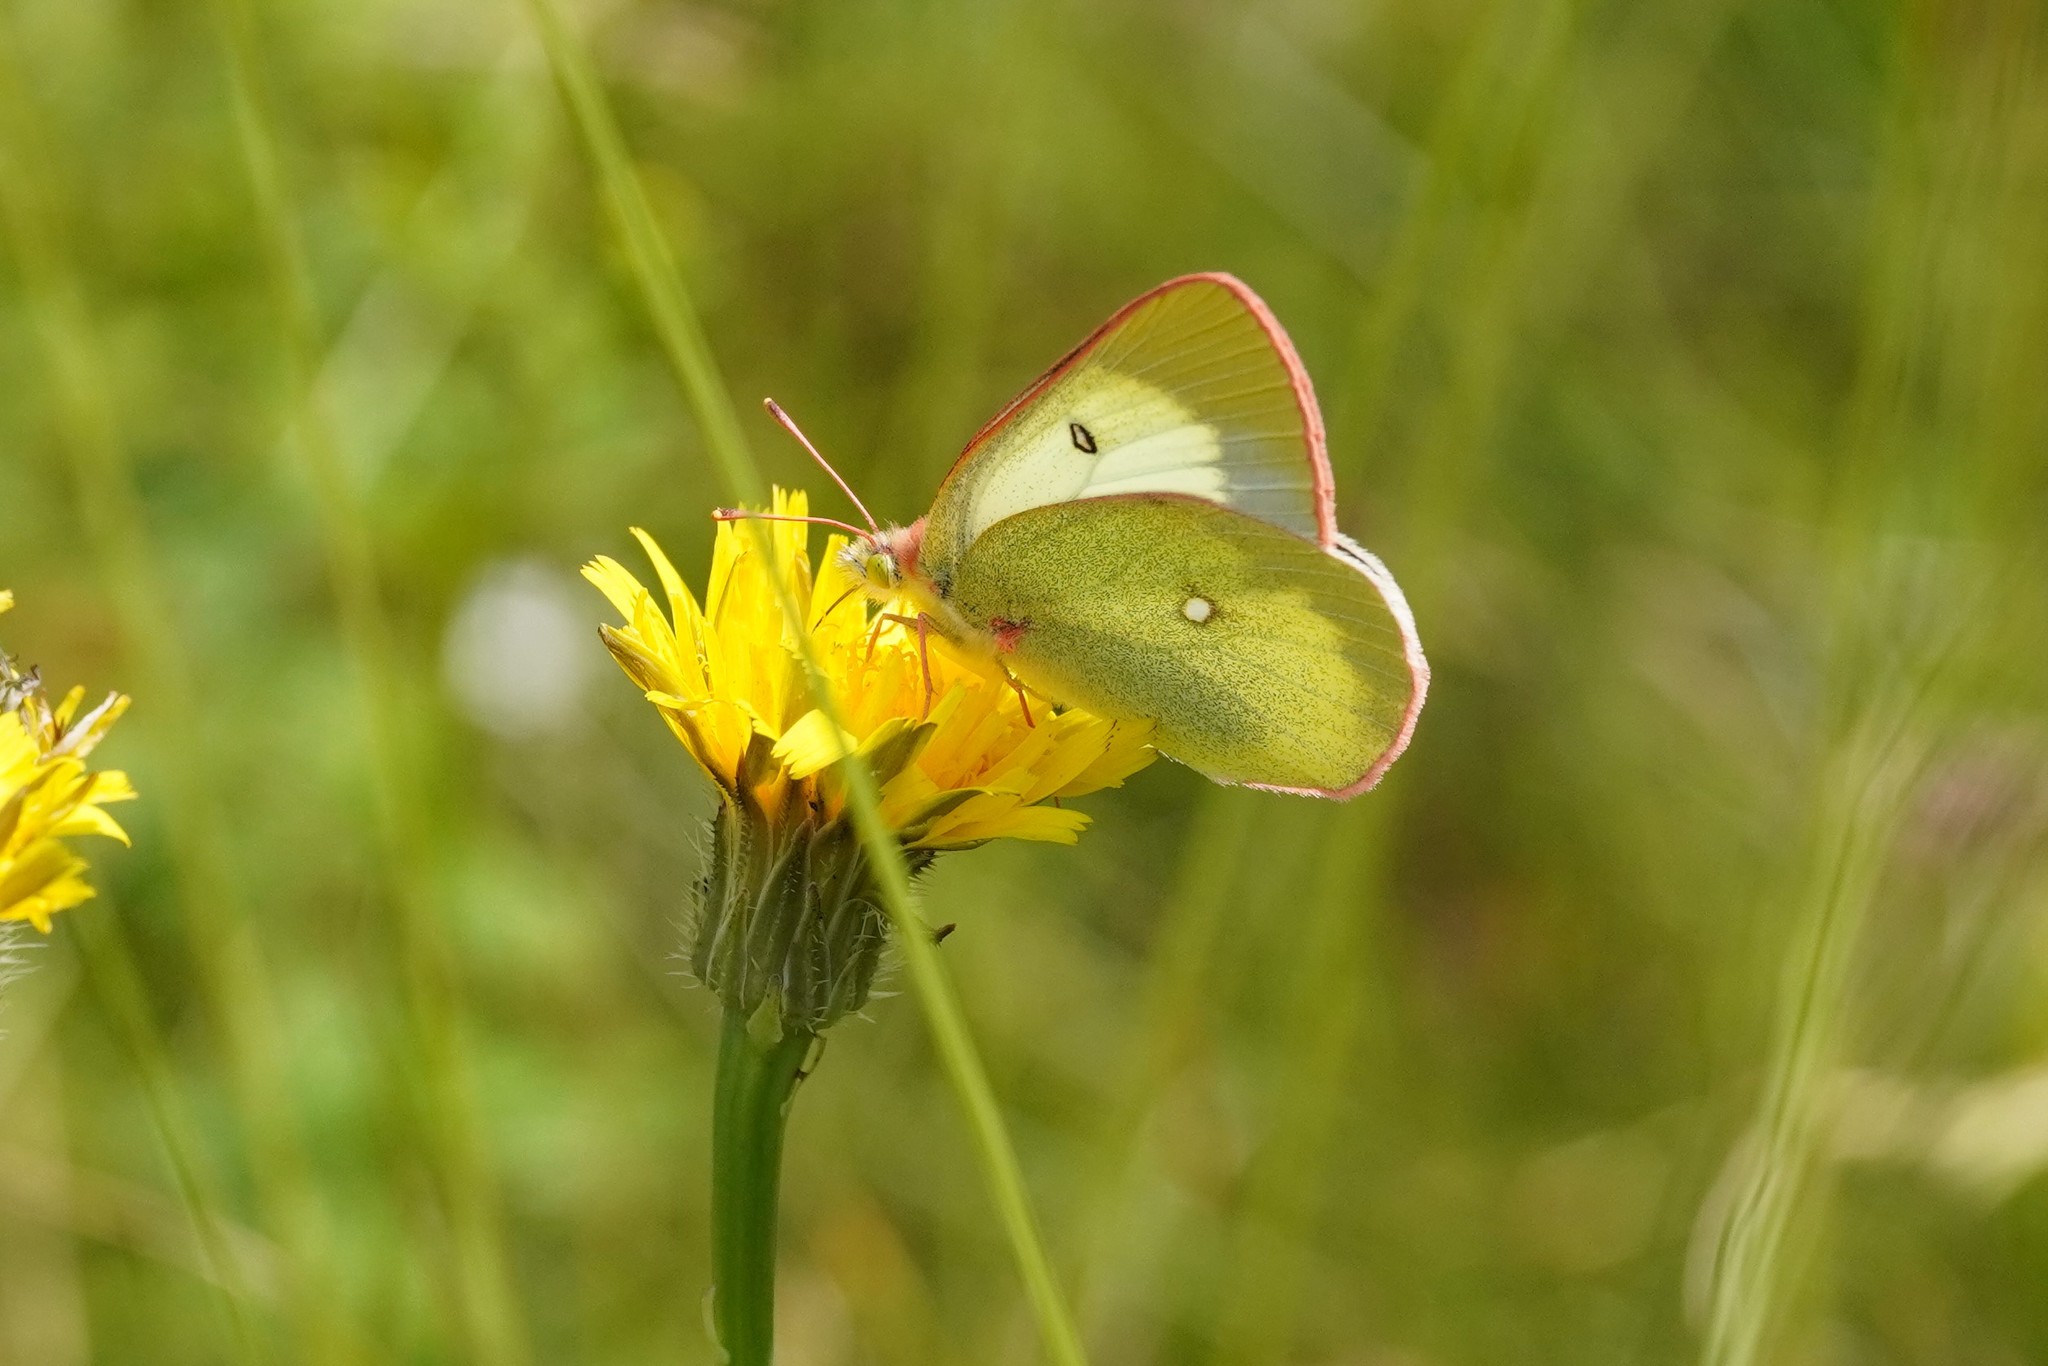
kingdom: Animalia
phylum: Arthropoda
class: Insecta
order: Lepidoptera
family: Pieridae
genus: Colias
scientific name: Colias palaeno
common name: Moorland clouded yellow
